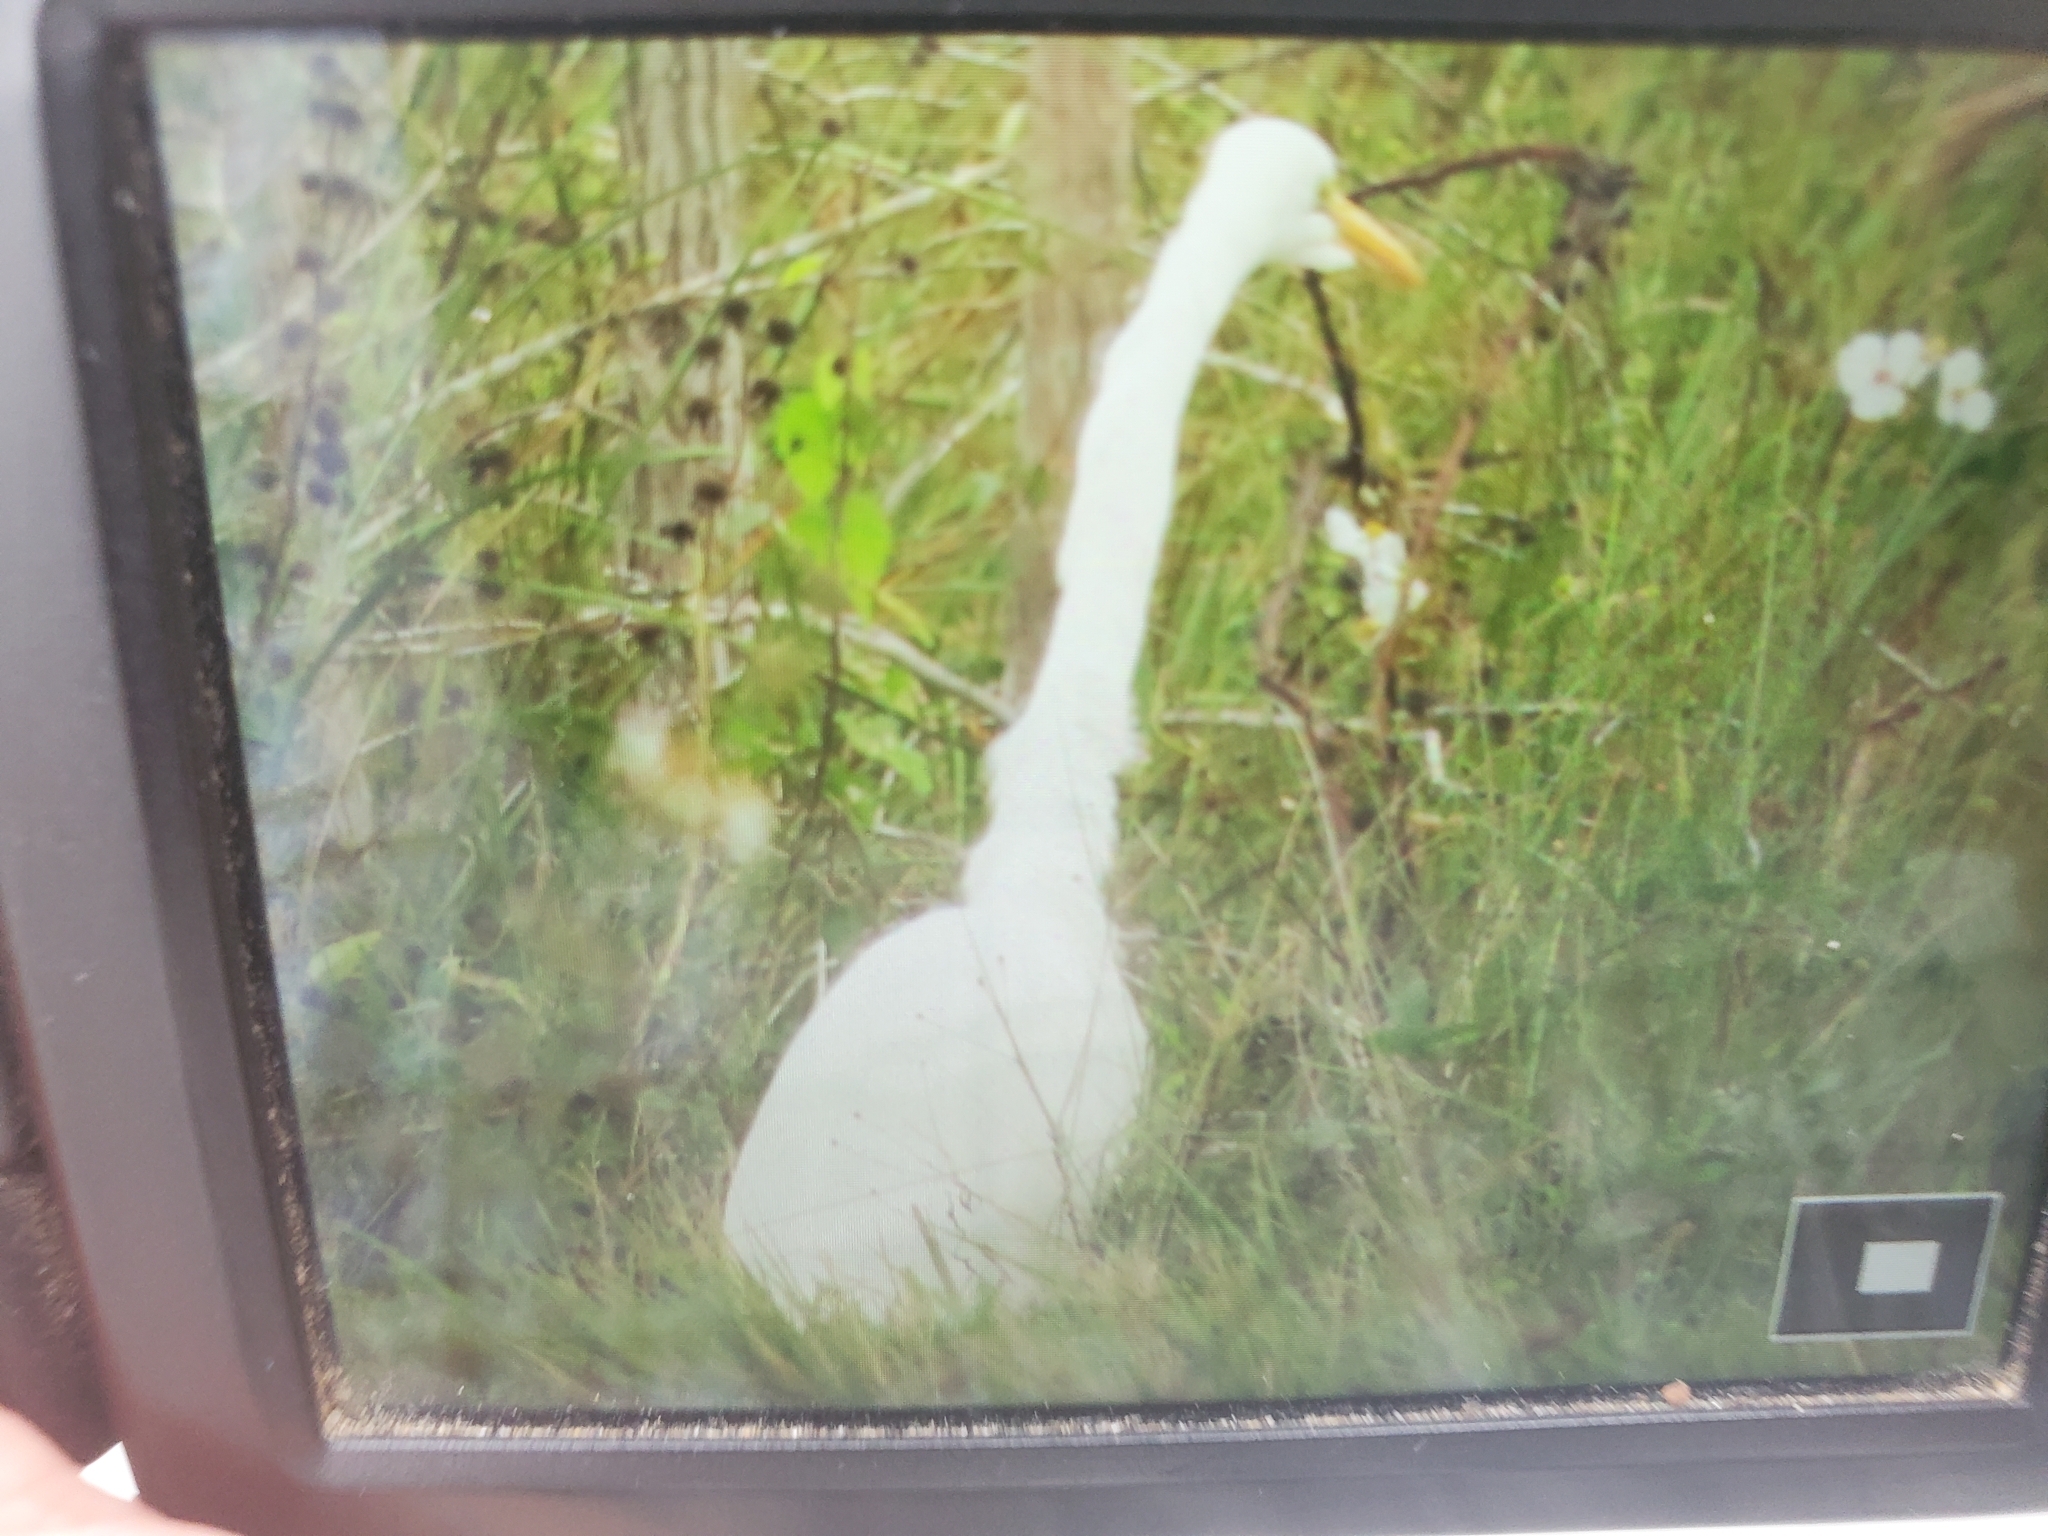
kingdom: Animalia
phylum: Chordata
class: Aves
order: Pelecaniformes
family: Ardeidae
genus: Ardea
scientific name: Ardea alba
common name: Great egret
